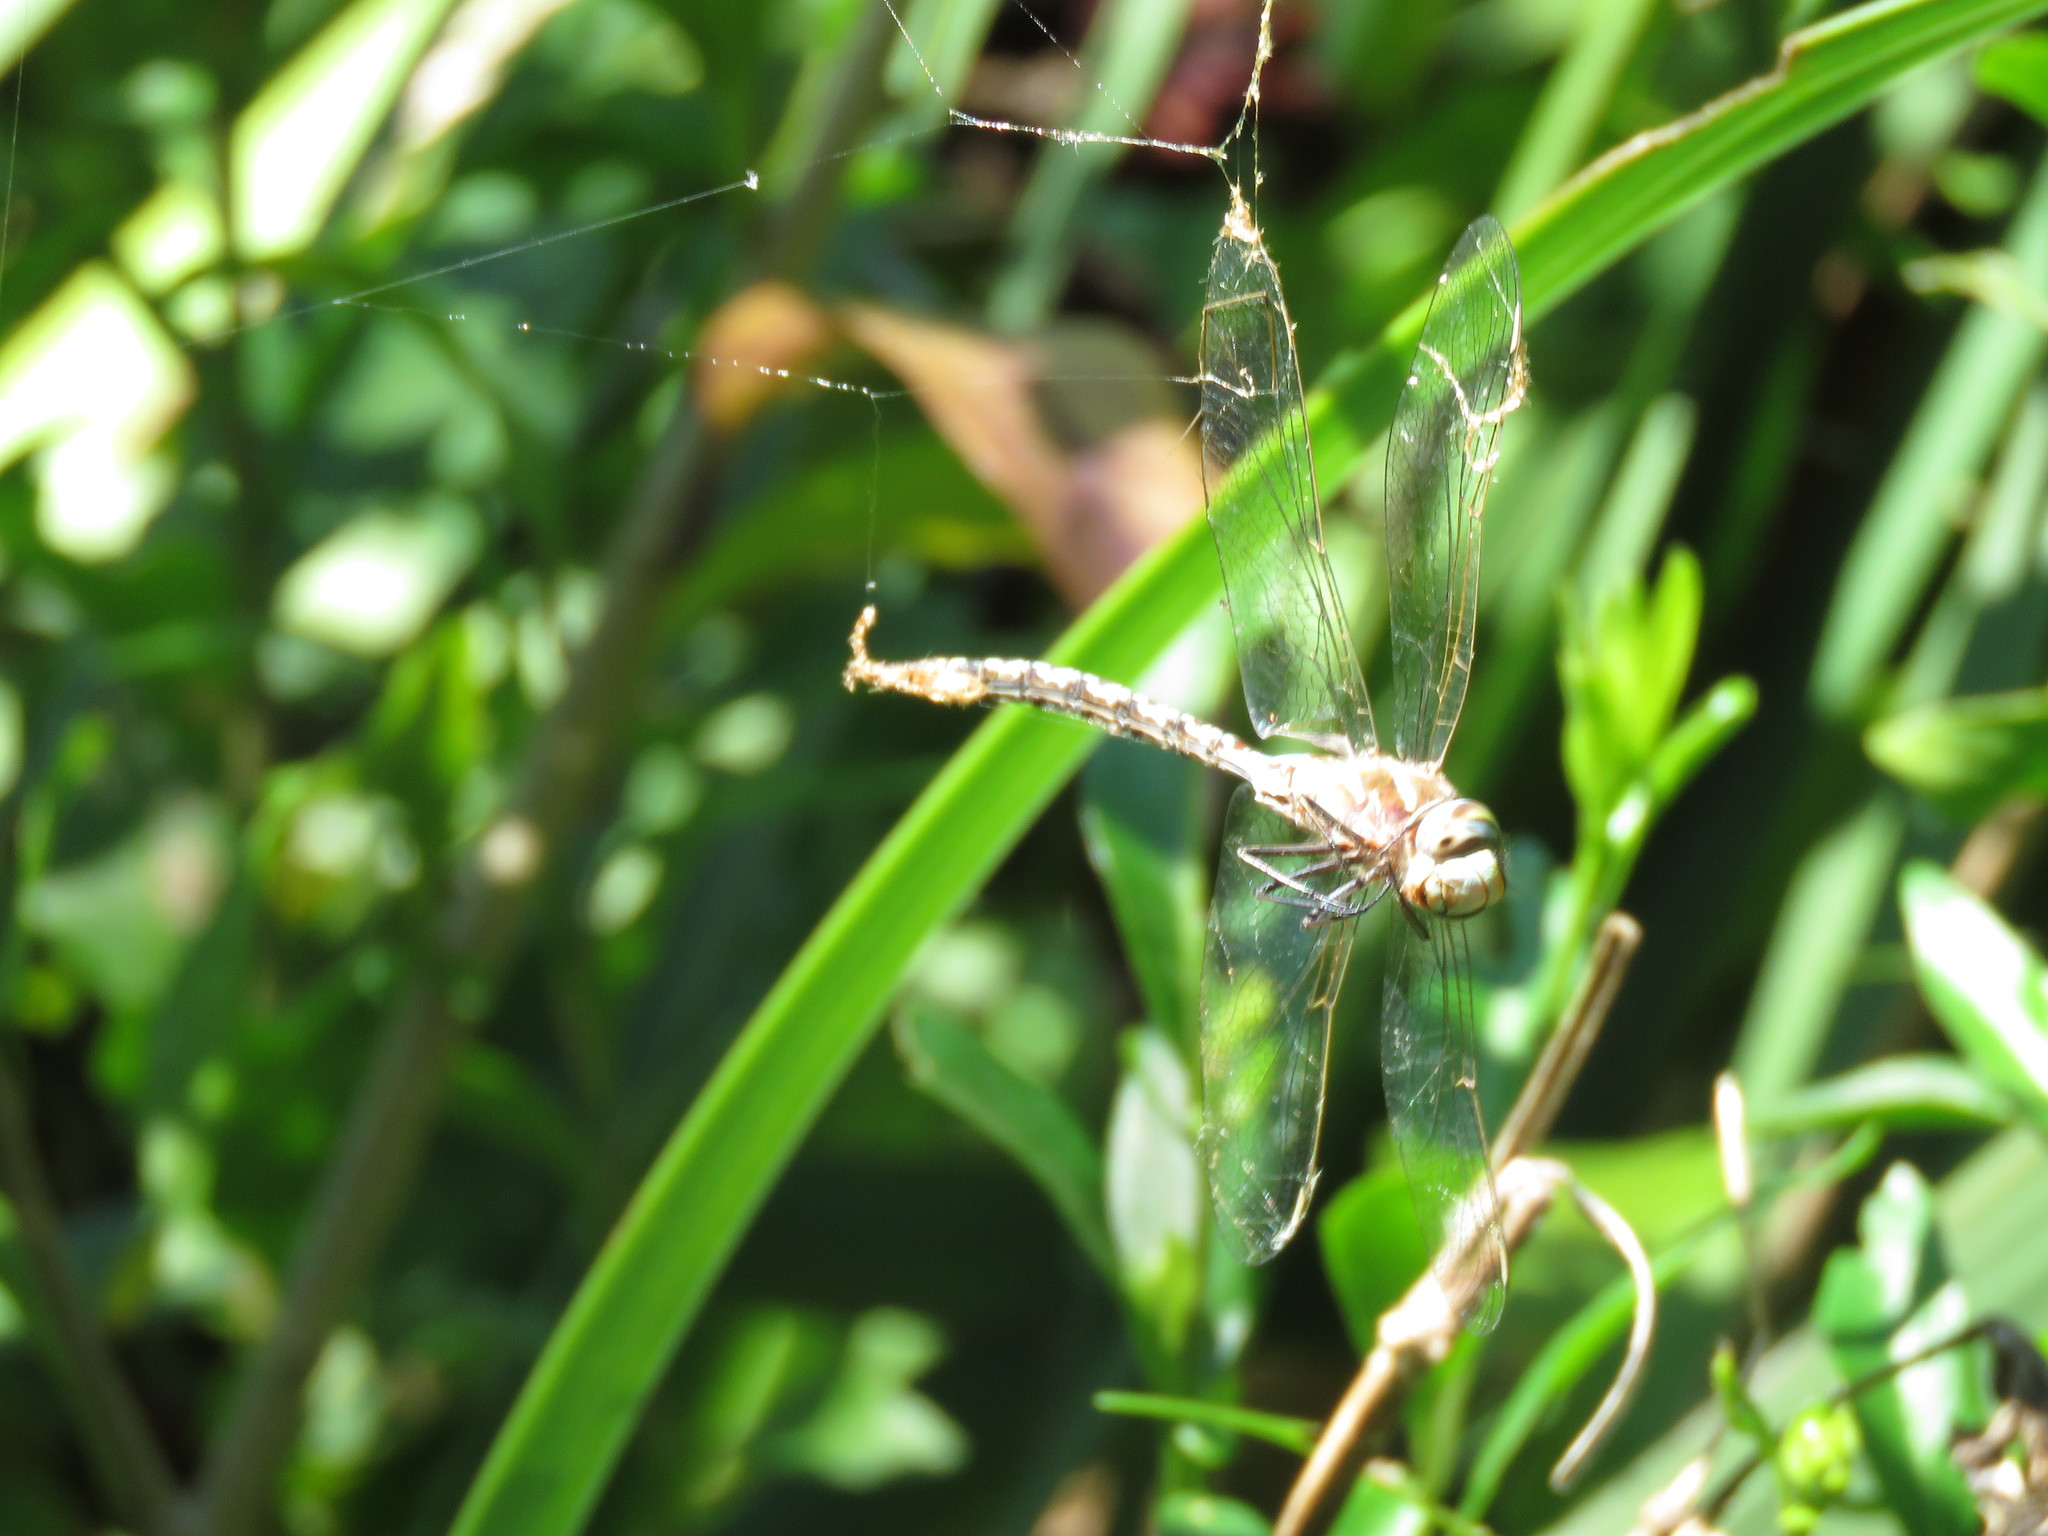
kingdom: Animalia
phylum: Arthropoda
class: Insecta
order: Odonata
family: Aeshnidae
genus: Rhionaeschna
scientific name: Rhionaeschna bonariensis
